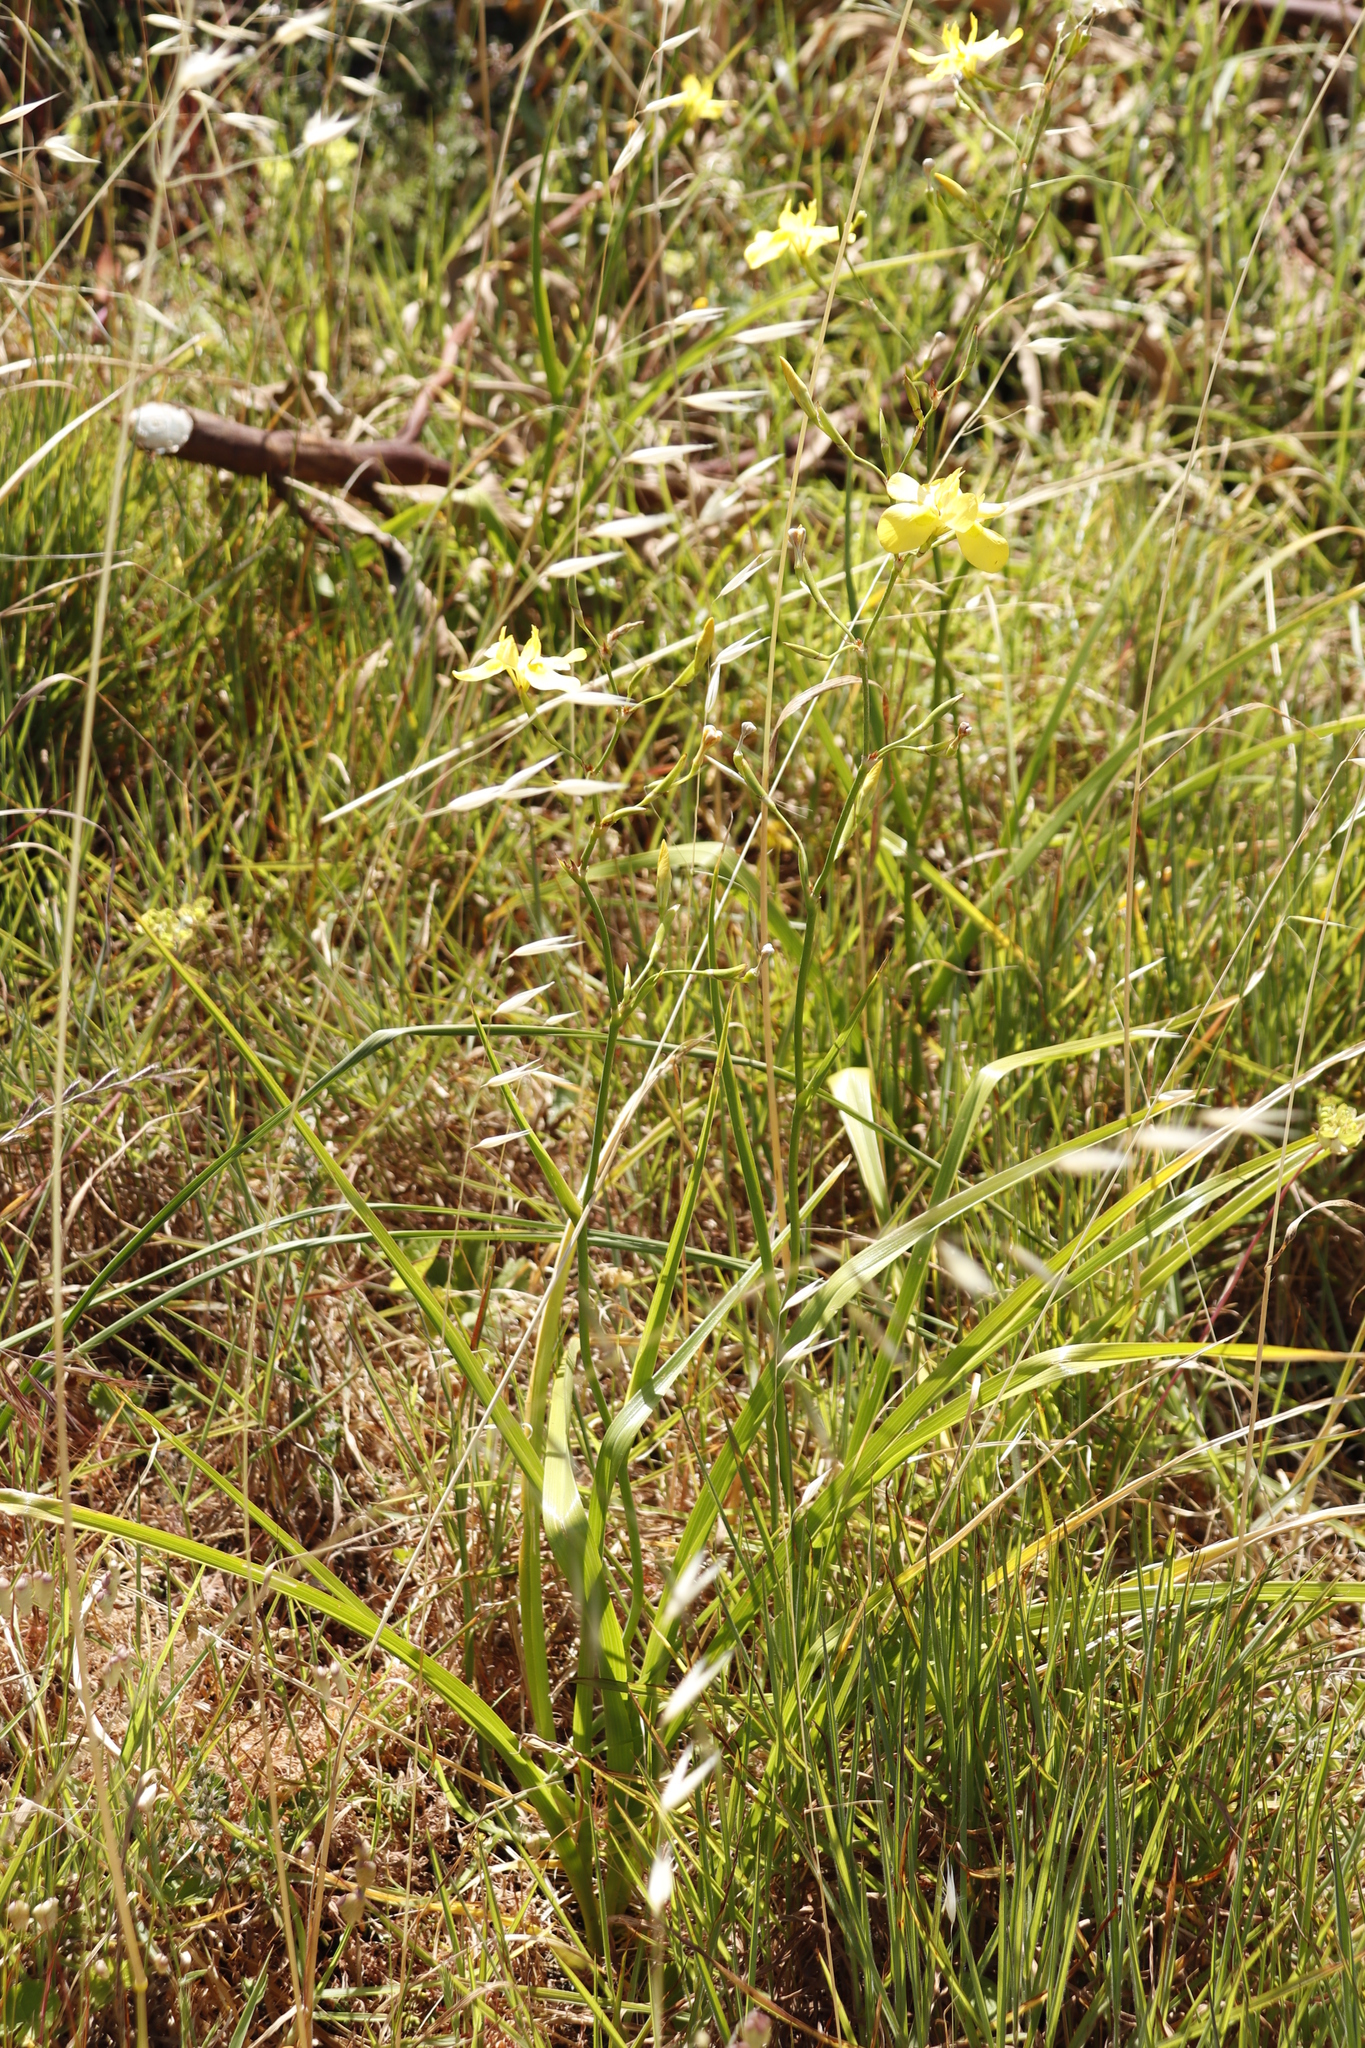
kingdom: Plantae
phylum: Tracheophyta
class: Liliopsida
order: Asparagales
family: Iridaceae
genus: Moraea
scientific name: Moraea ramosissima
